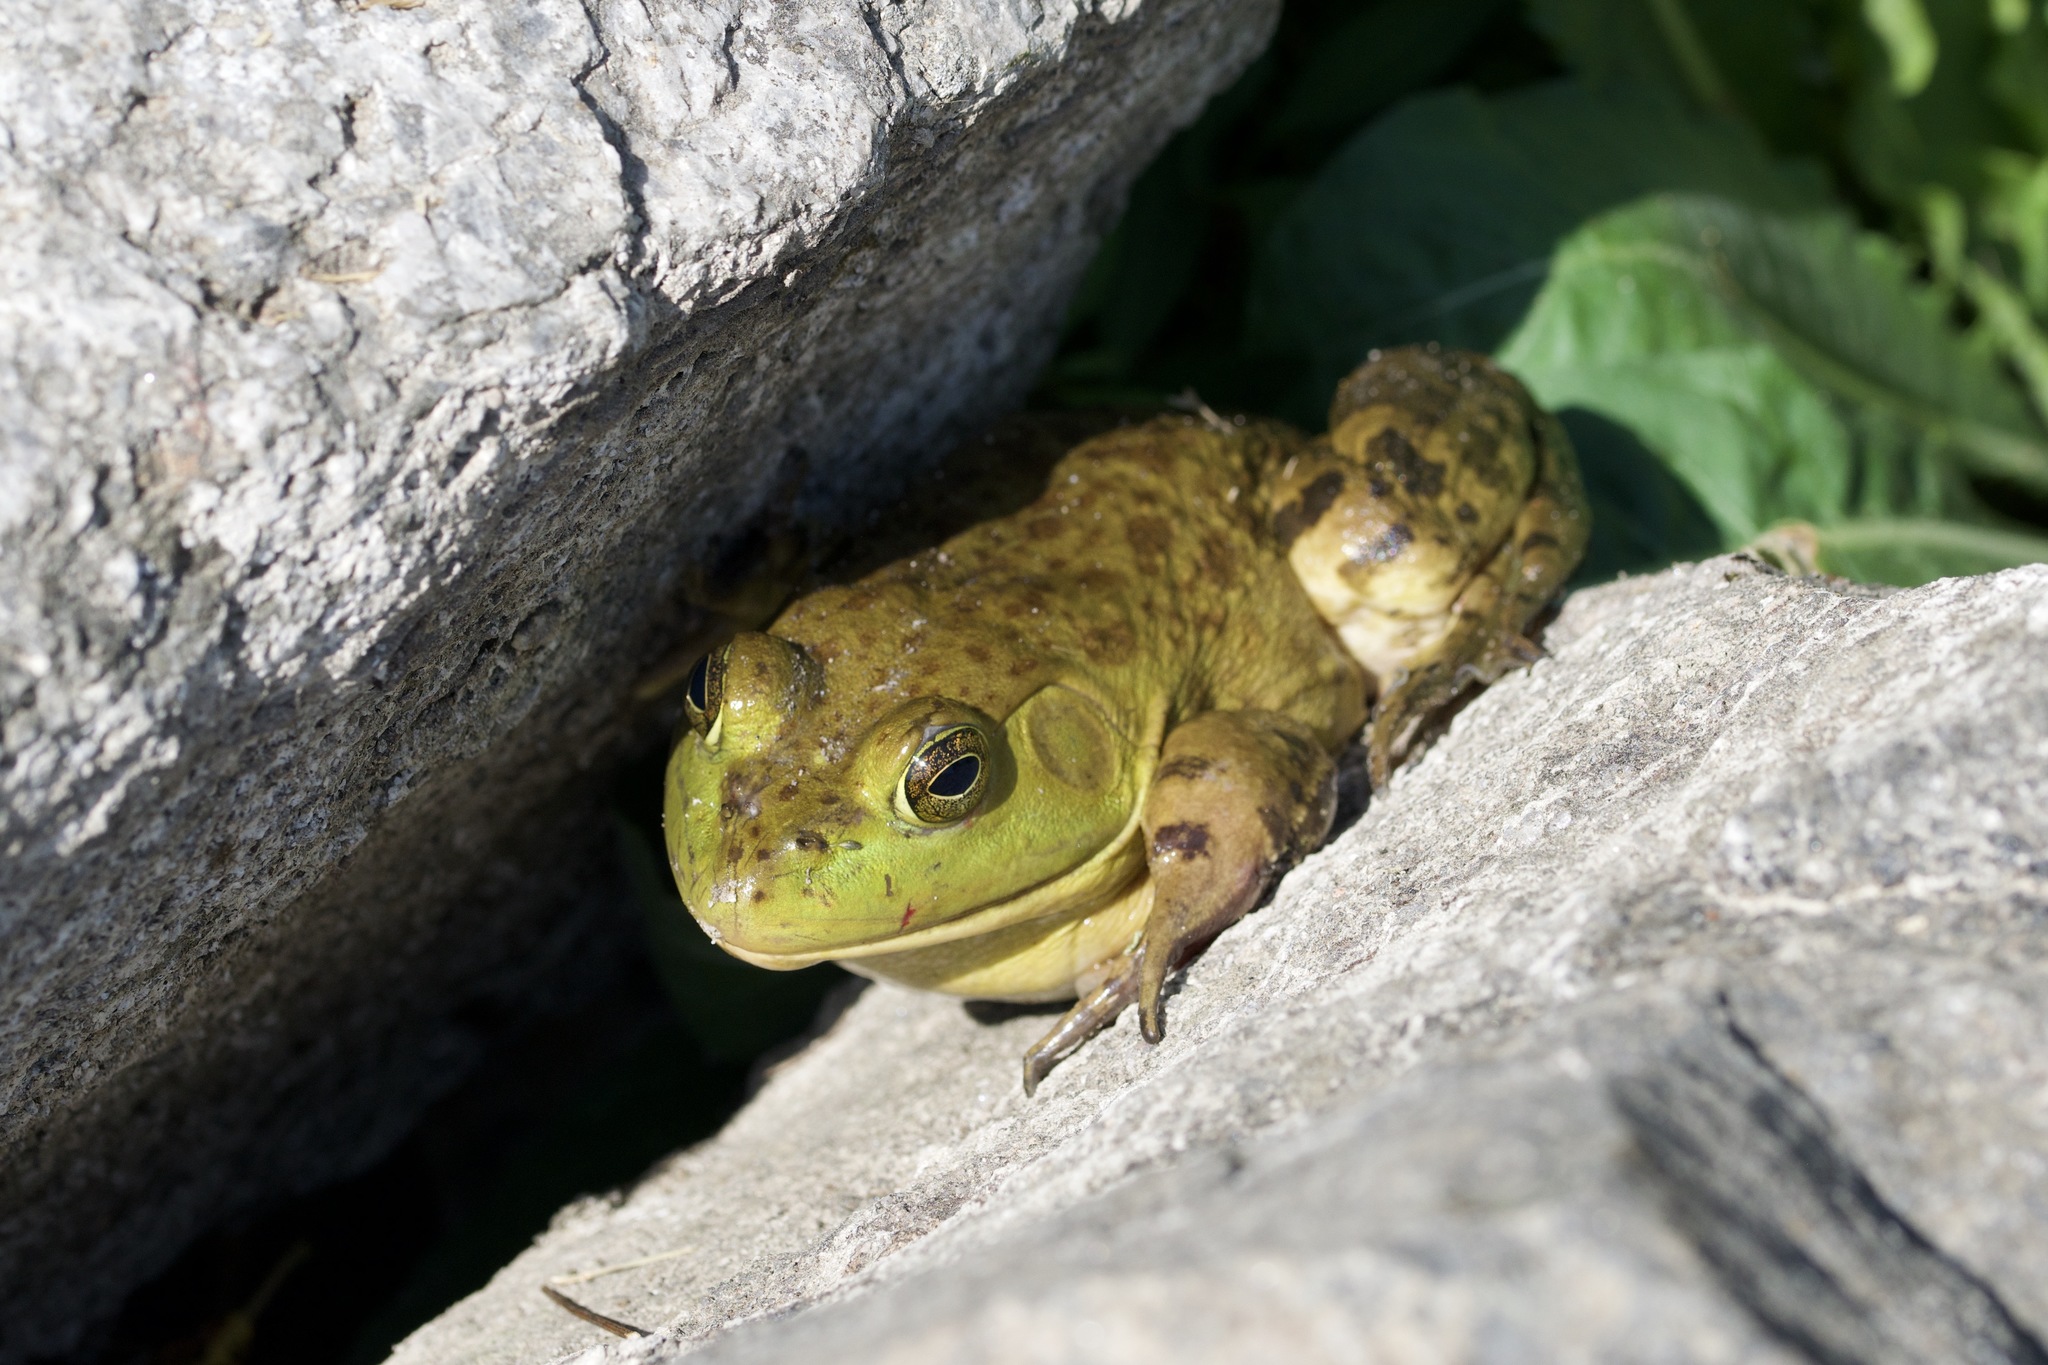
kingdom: Animalia
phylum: Chordata
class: Amphibia
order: Anura
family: Ranidae
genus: Lithobates
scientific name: Lithobates catesbeianus
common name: American bullfrog
